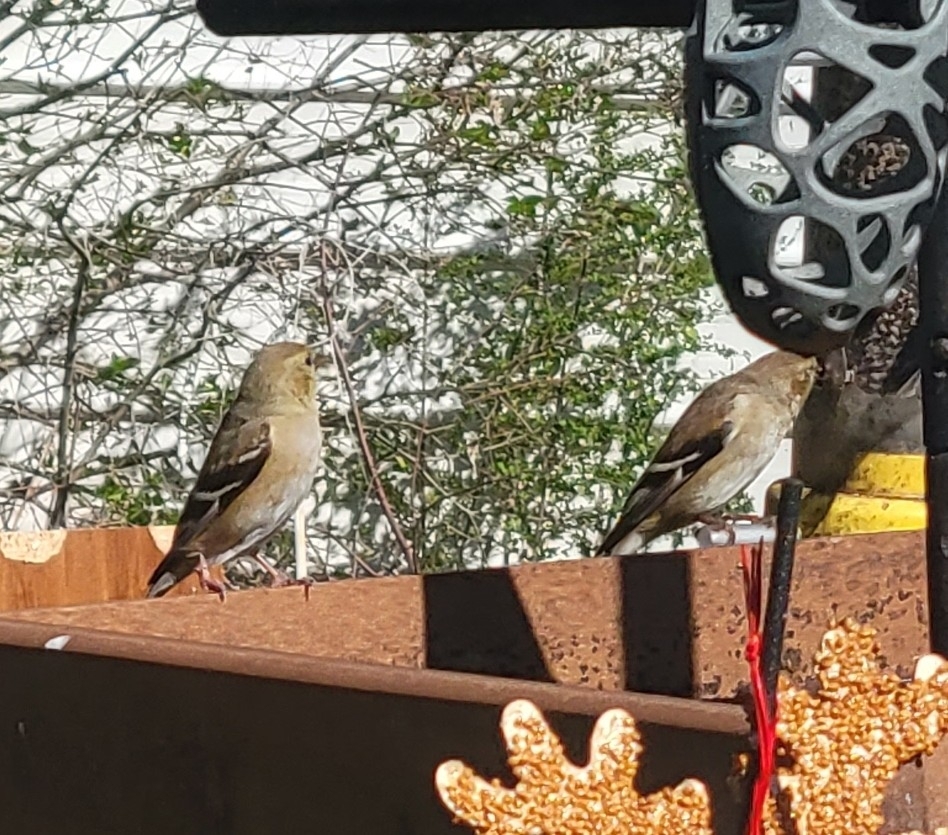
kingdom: Animalia
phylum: Chordata
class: Aves
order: Passeriformes
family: Fringillidae
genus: Spinus
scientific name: Spinus tristis
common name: American goldfinch
